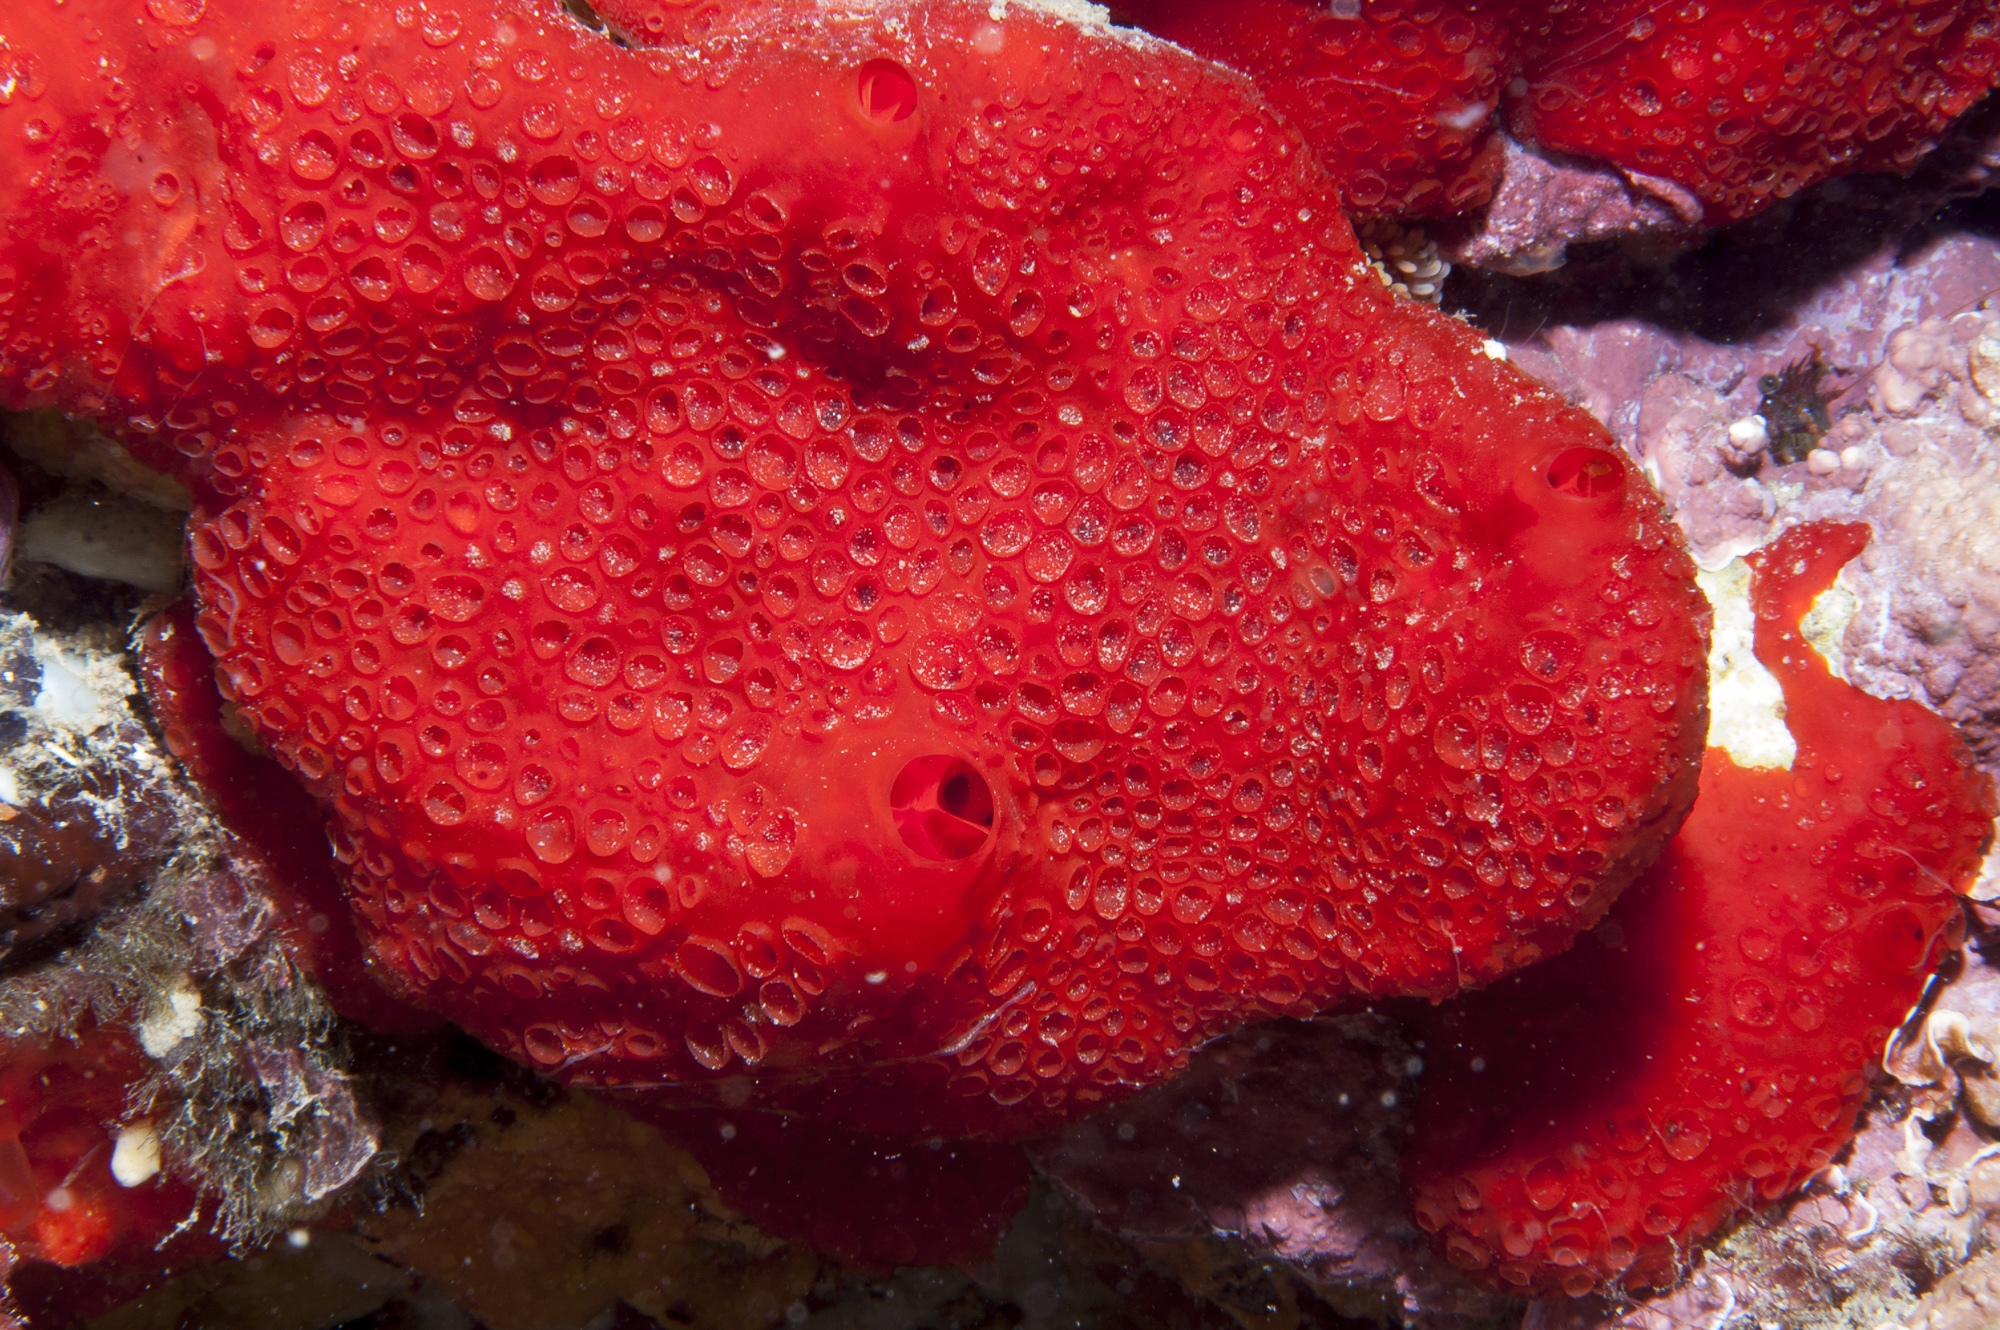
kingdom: Animalia
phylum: Porifera
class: Demospongiae
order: Poecilosclerida
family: Hymedesmiidae
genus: Phorbas
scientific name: Phorbas topsenti
